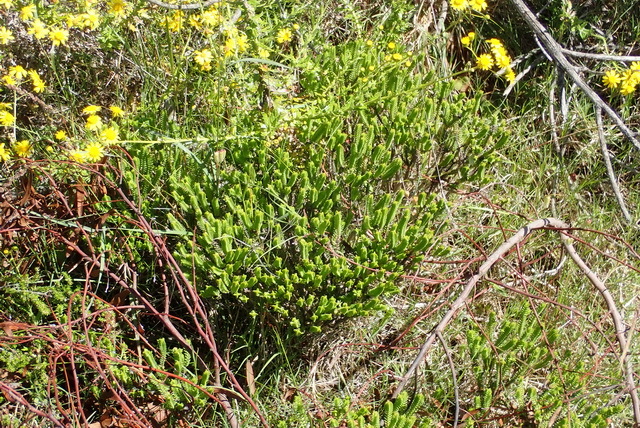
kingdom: Plantae
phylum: Tracheophyta
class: Magnoliopsida
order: Saxifragales
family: Crassulaceae
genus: Crassula
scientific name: Crassula ericoides
